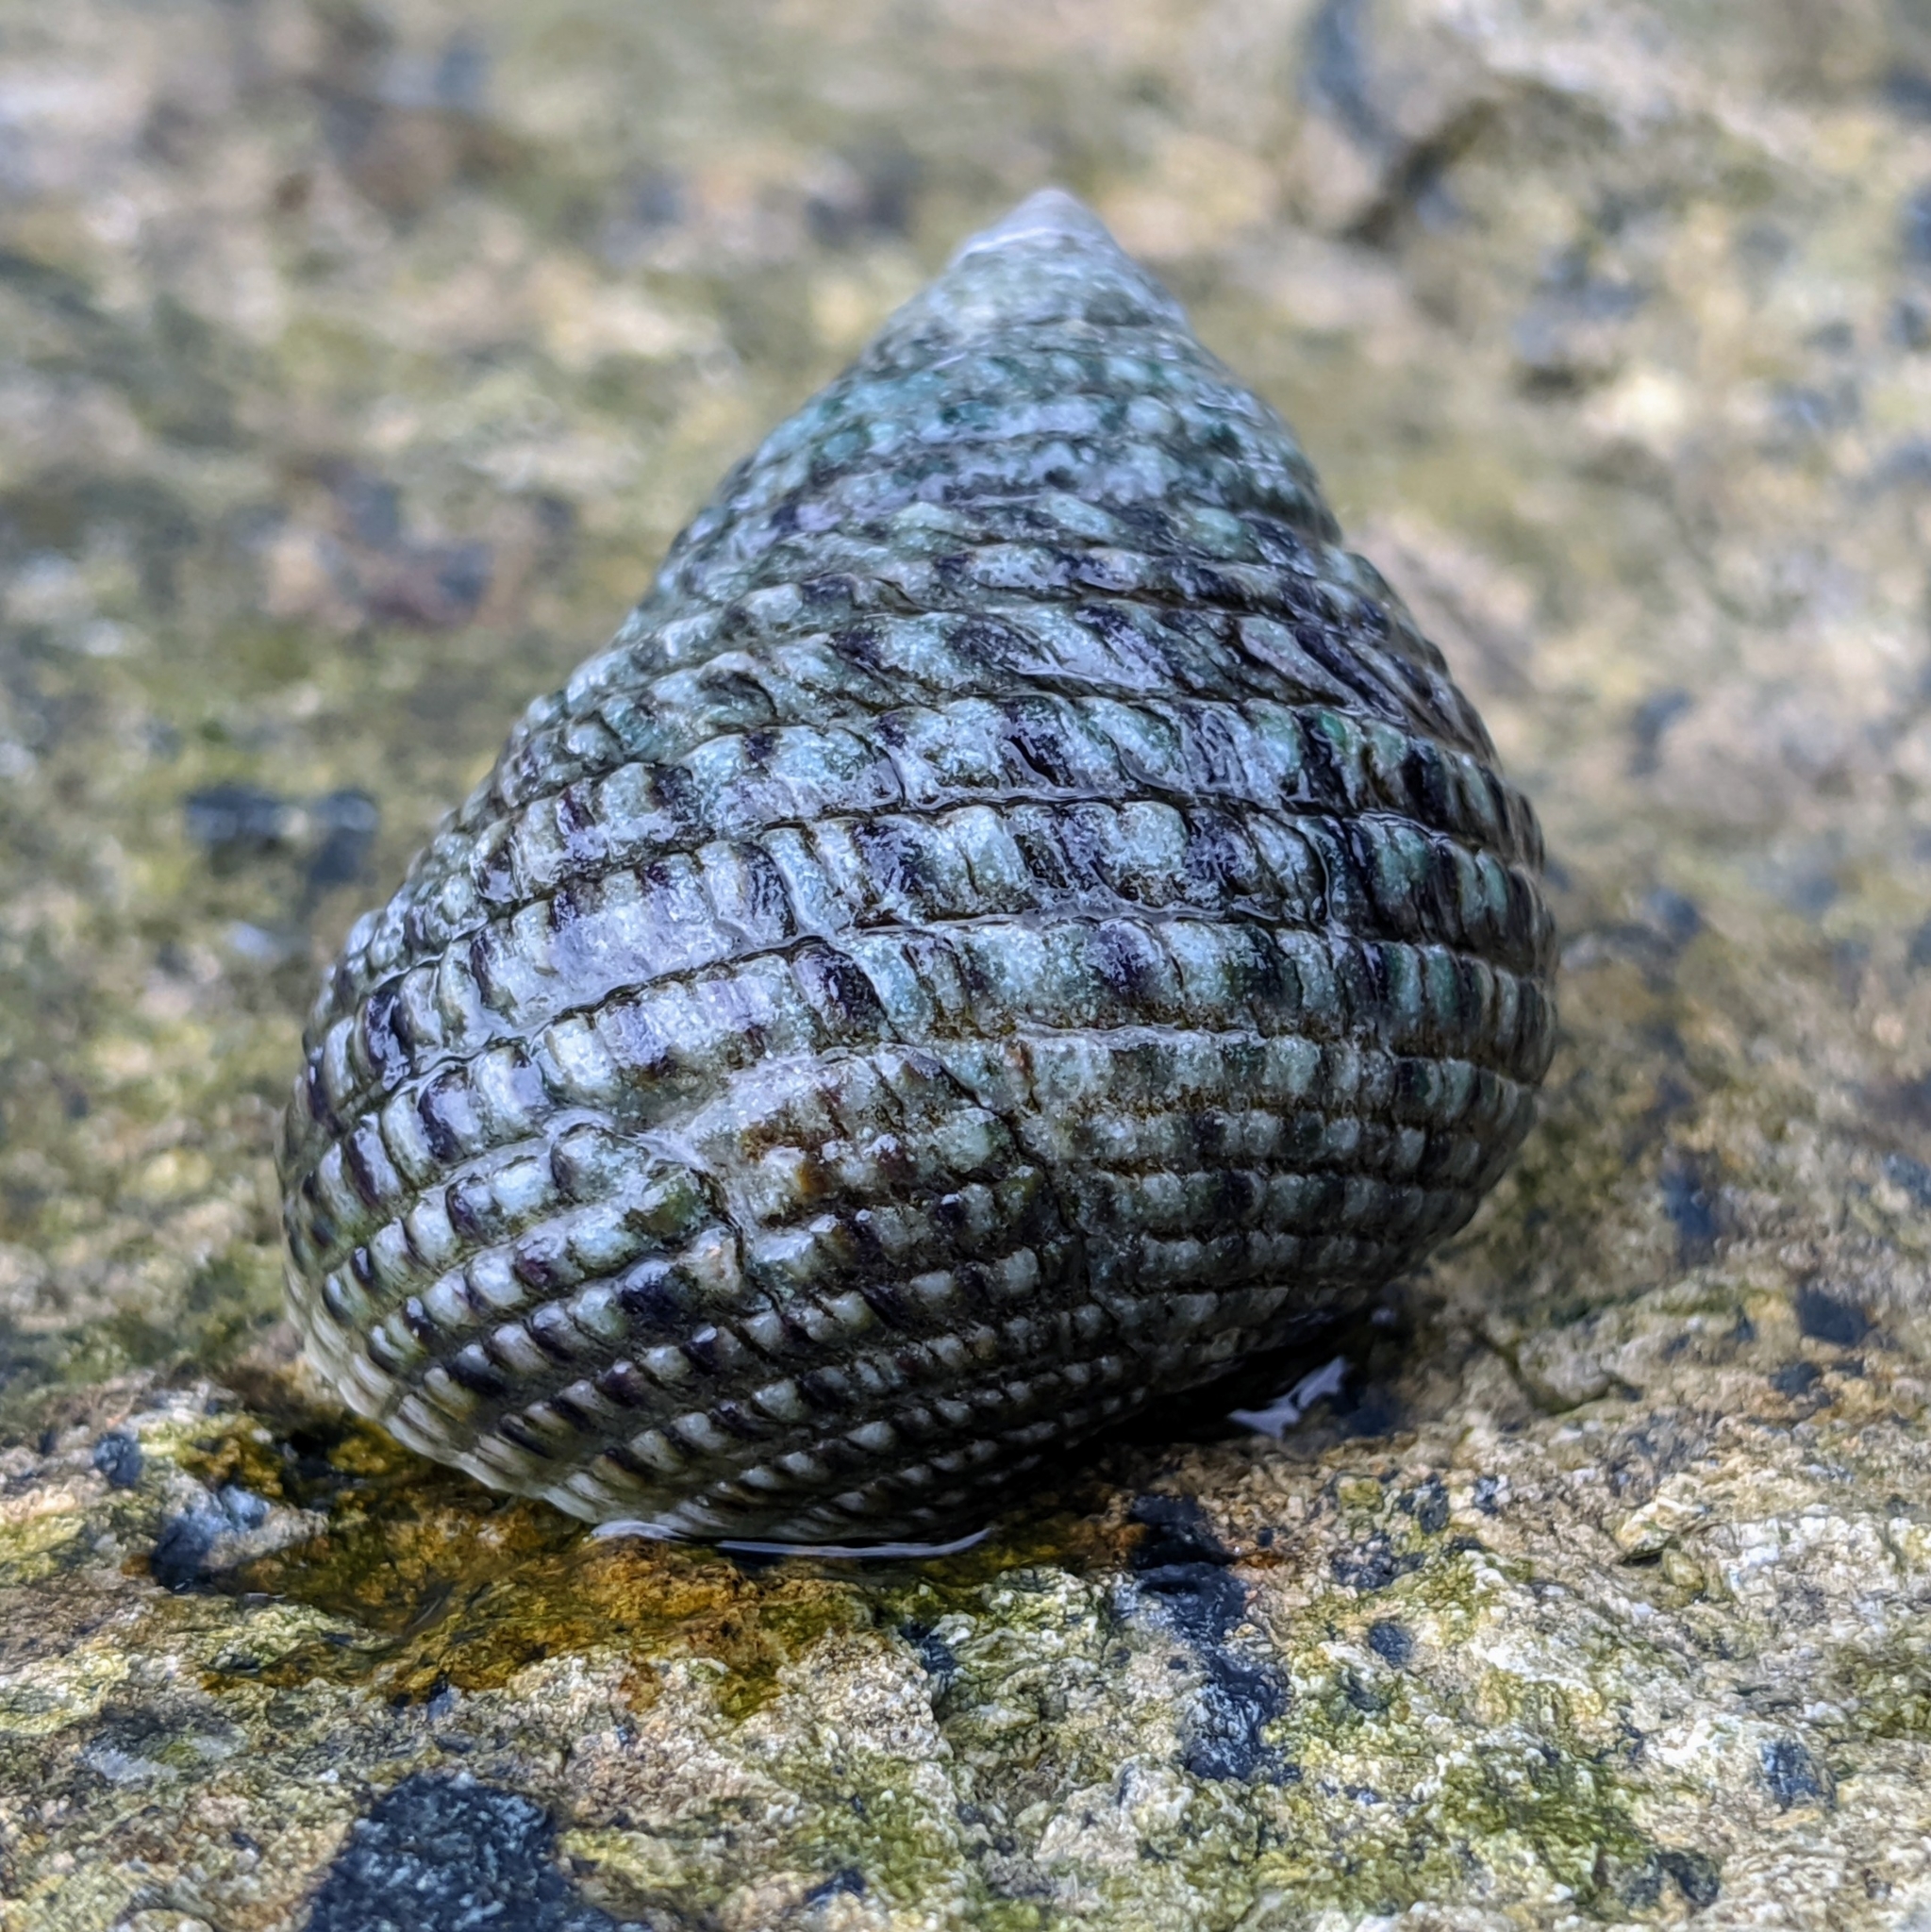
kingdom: Animalia
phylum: Mollusca
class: Gastropoda
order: Trochida
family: Trochidae
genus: Monodonta
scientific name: Monodonta labio
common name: Labio
